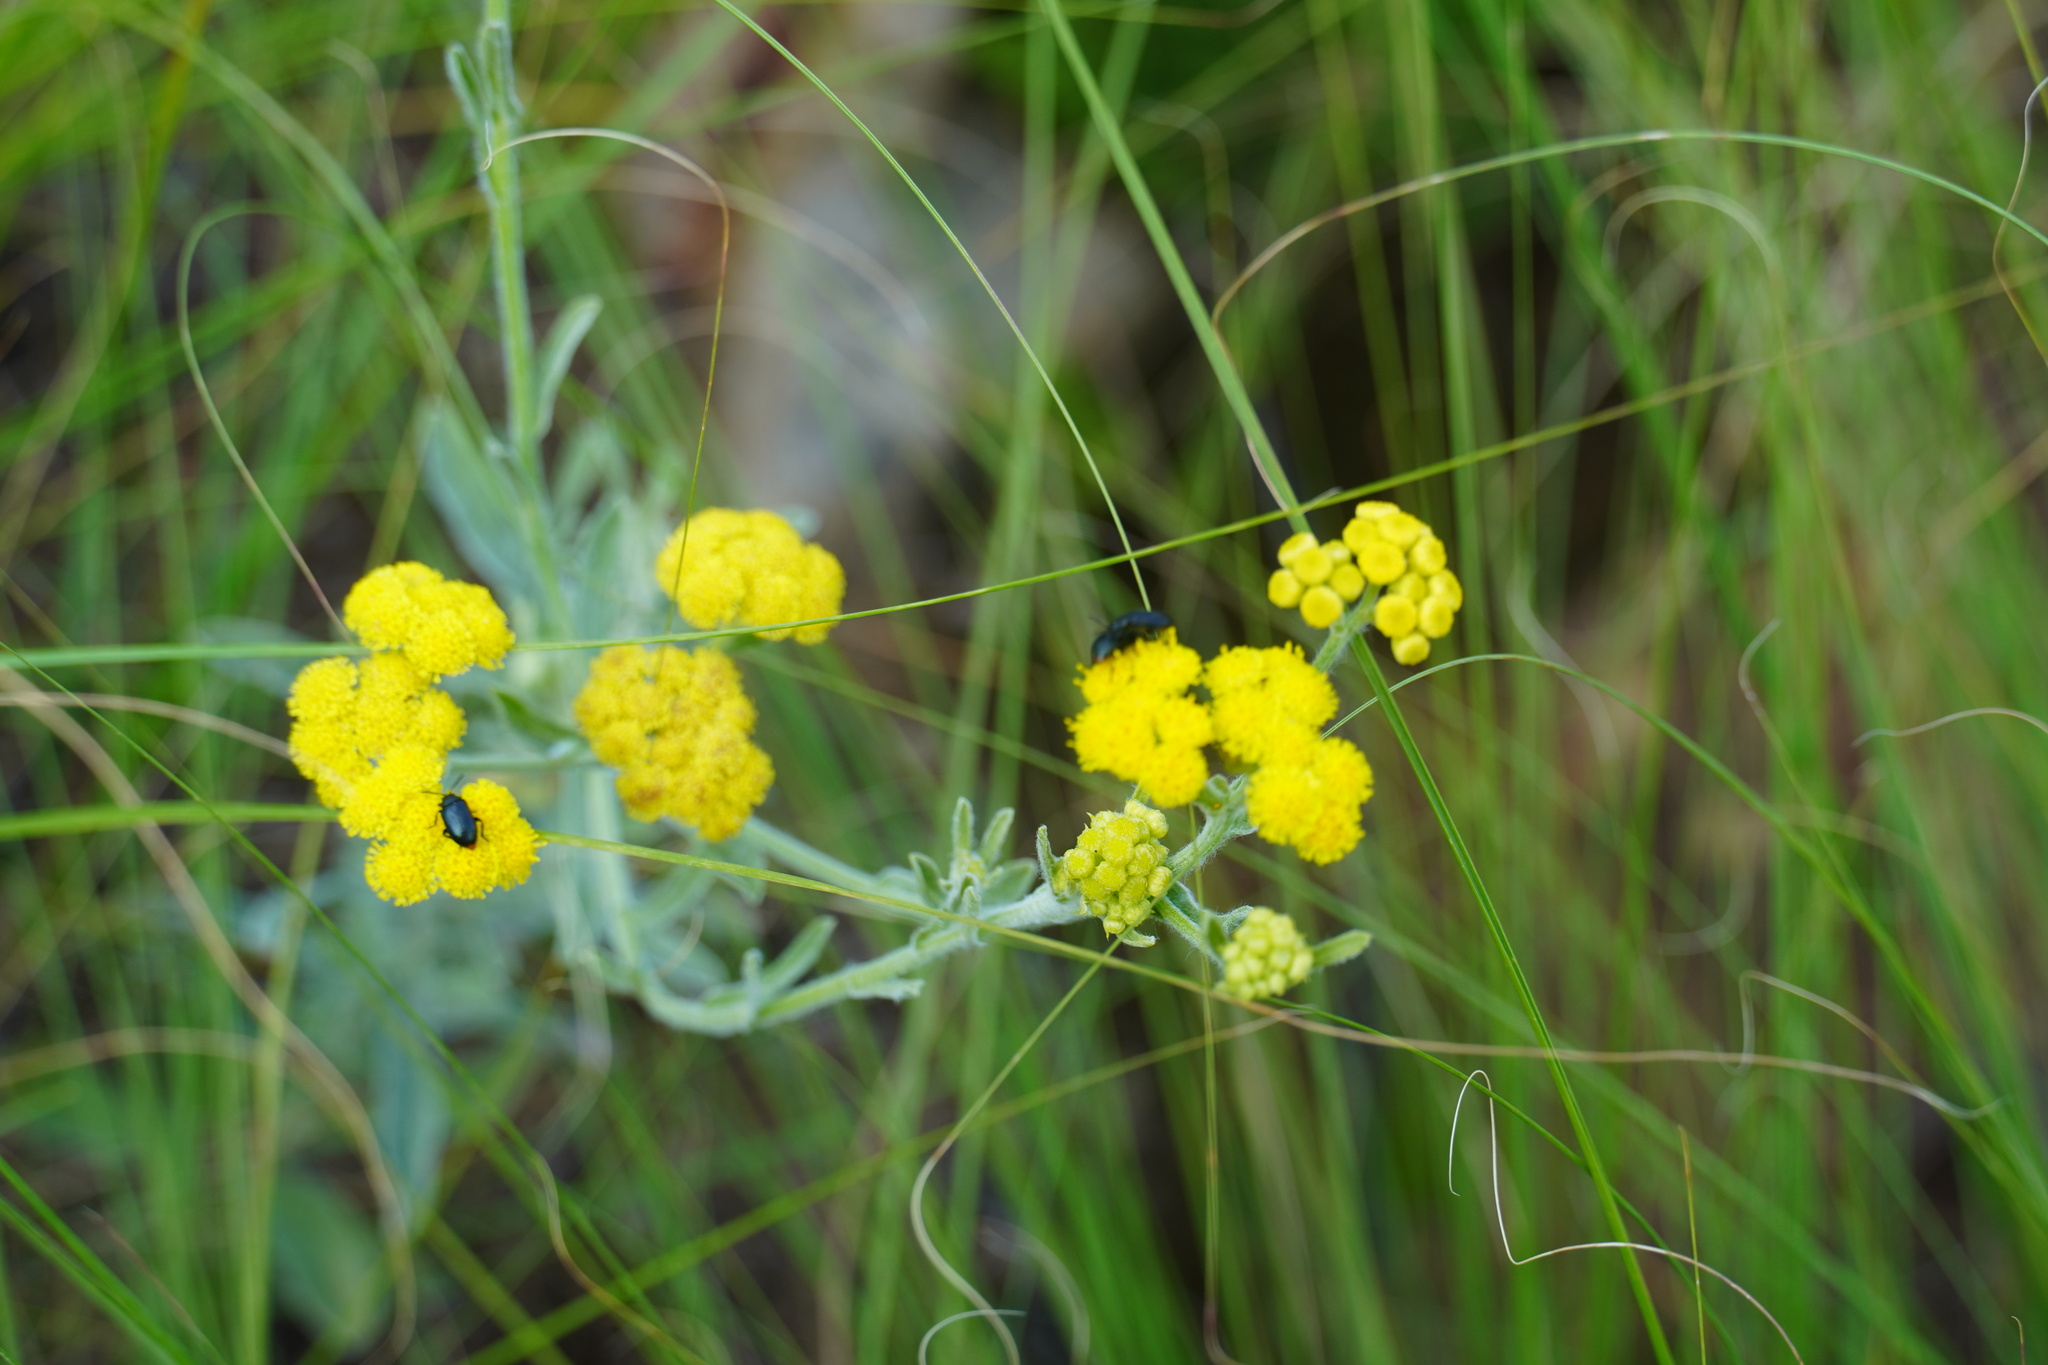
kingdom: Animalia
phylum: Arthropoda
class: Insecta
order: Coleoptera
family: Chrysomelidae
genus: Gastrida
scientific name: Gastrida
